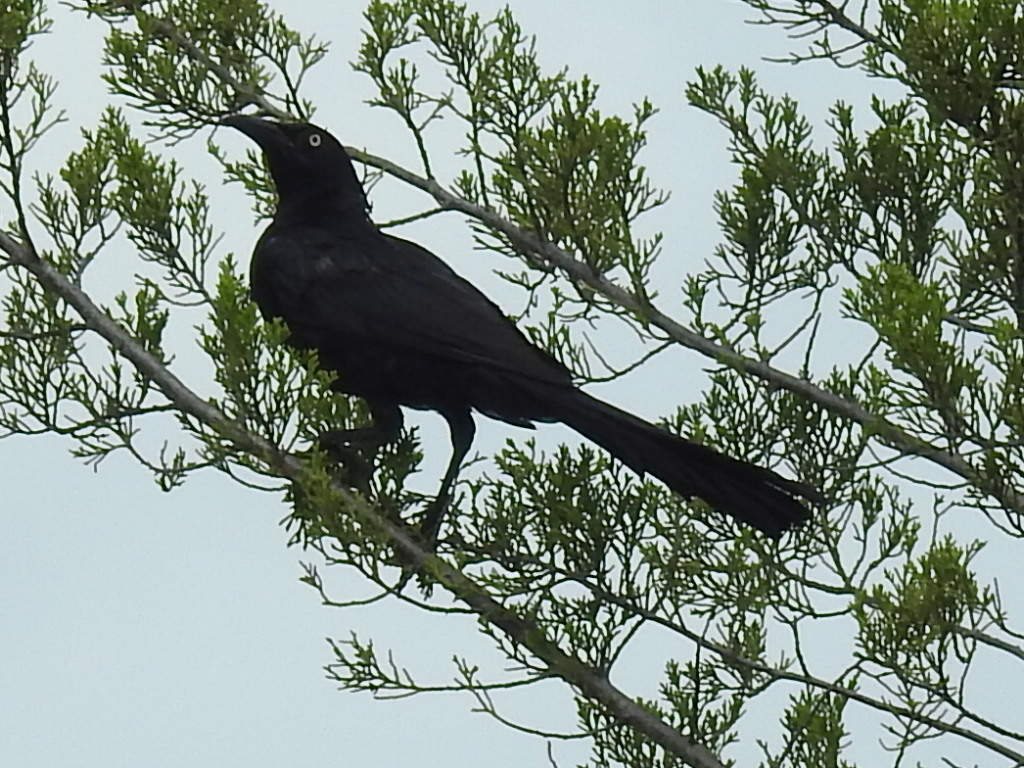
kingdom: Animalia
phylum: Chordata
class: Aves
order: Passeriformes
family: Icteridae
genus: Quiscalus
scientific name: Quiscalus mexicanus
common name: Great-tailed grackle
